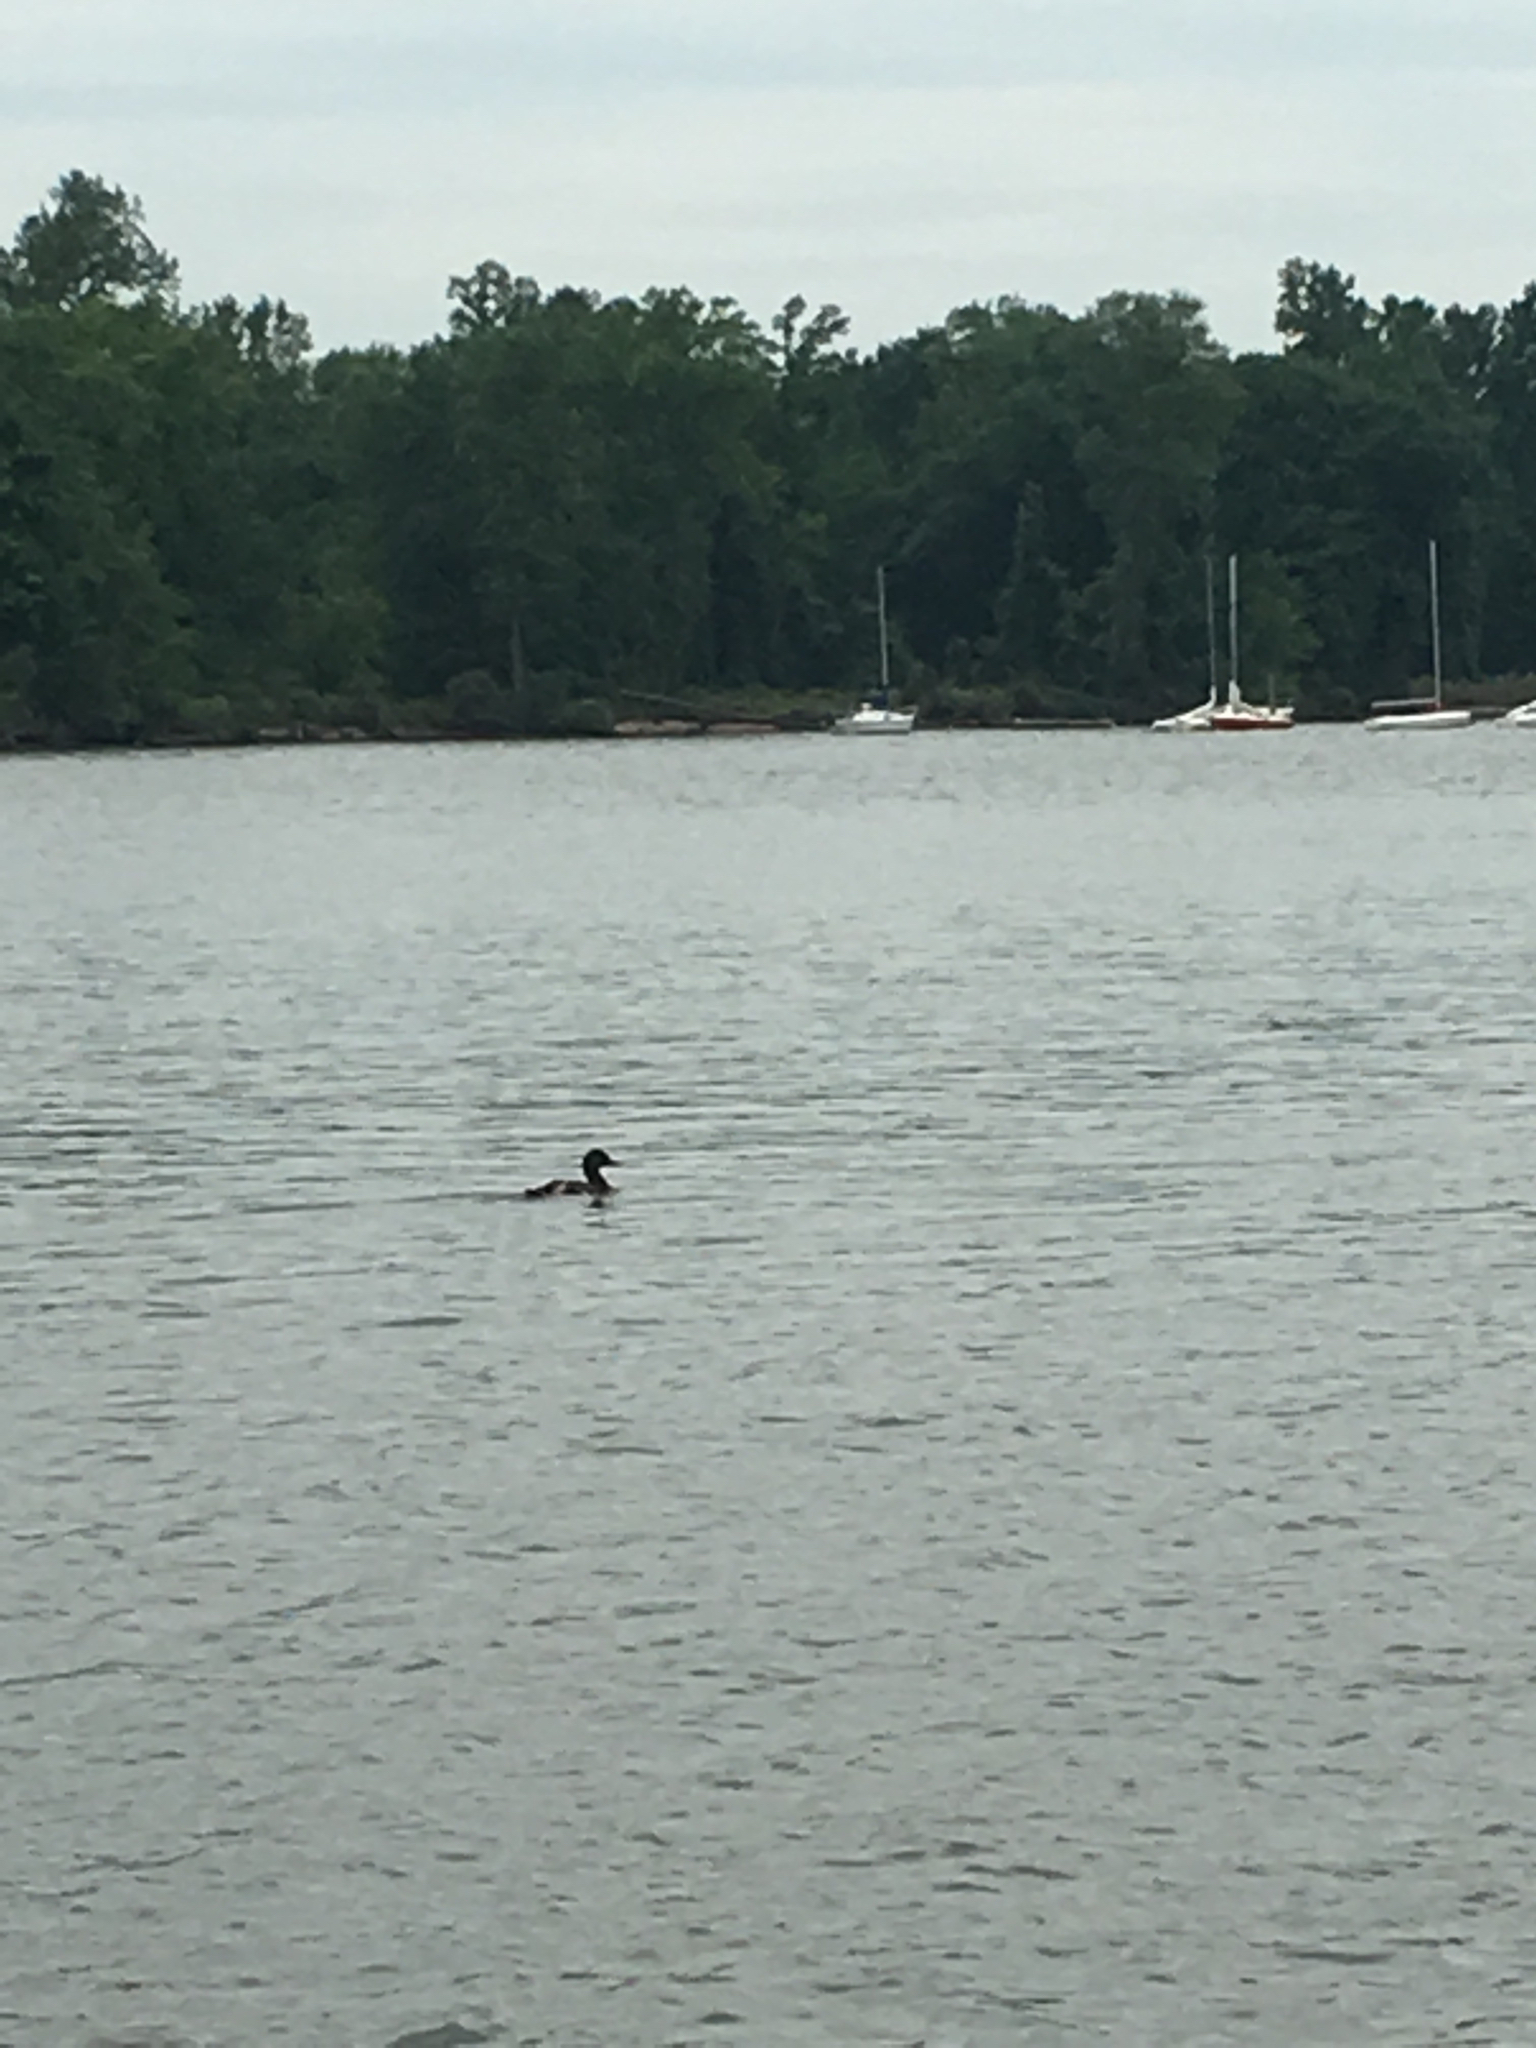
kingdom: Animalia
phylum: Chordata
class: Aves
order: Anseriformes
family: Anatidae
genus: Anas
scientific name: Anas platyrhynchos
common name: Mallard
